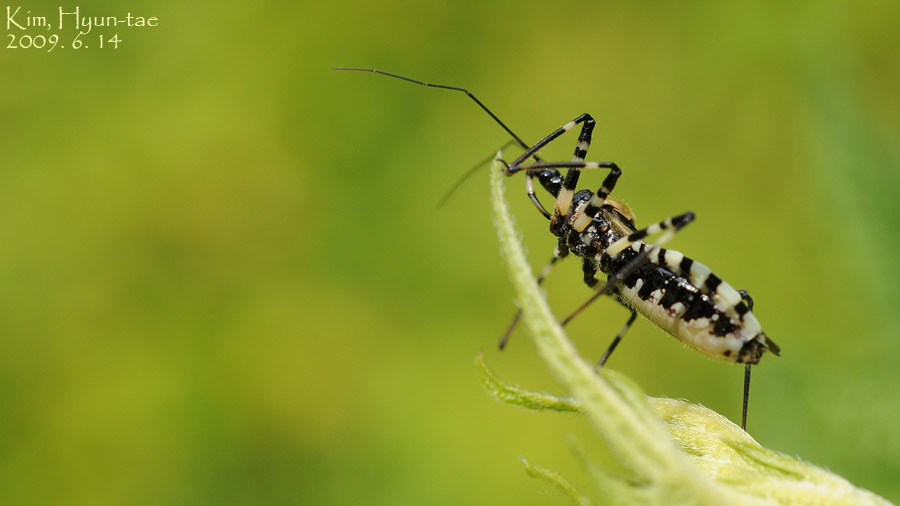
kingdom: Animalia
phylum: Arthropoda
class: Insecta
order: Hemiptera
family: Reduviidae
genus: Sphedanolestes
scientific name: Sphedanolestes impressicollis
